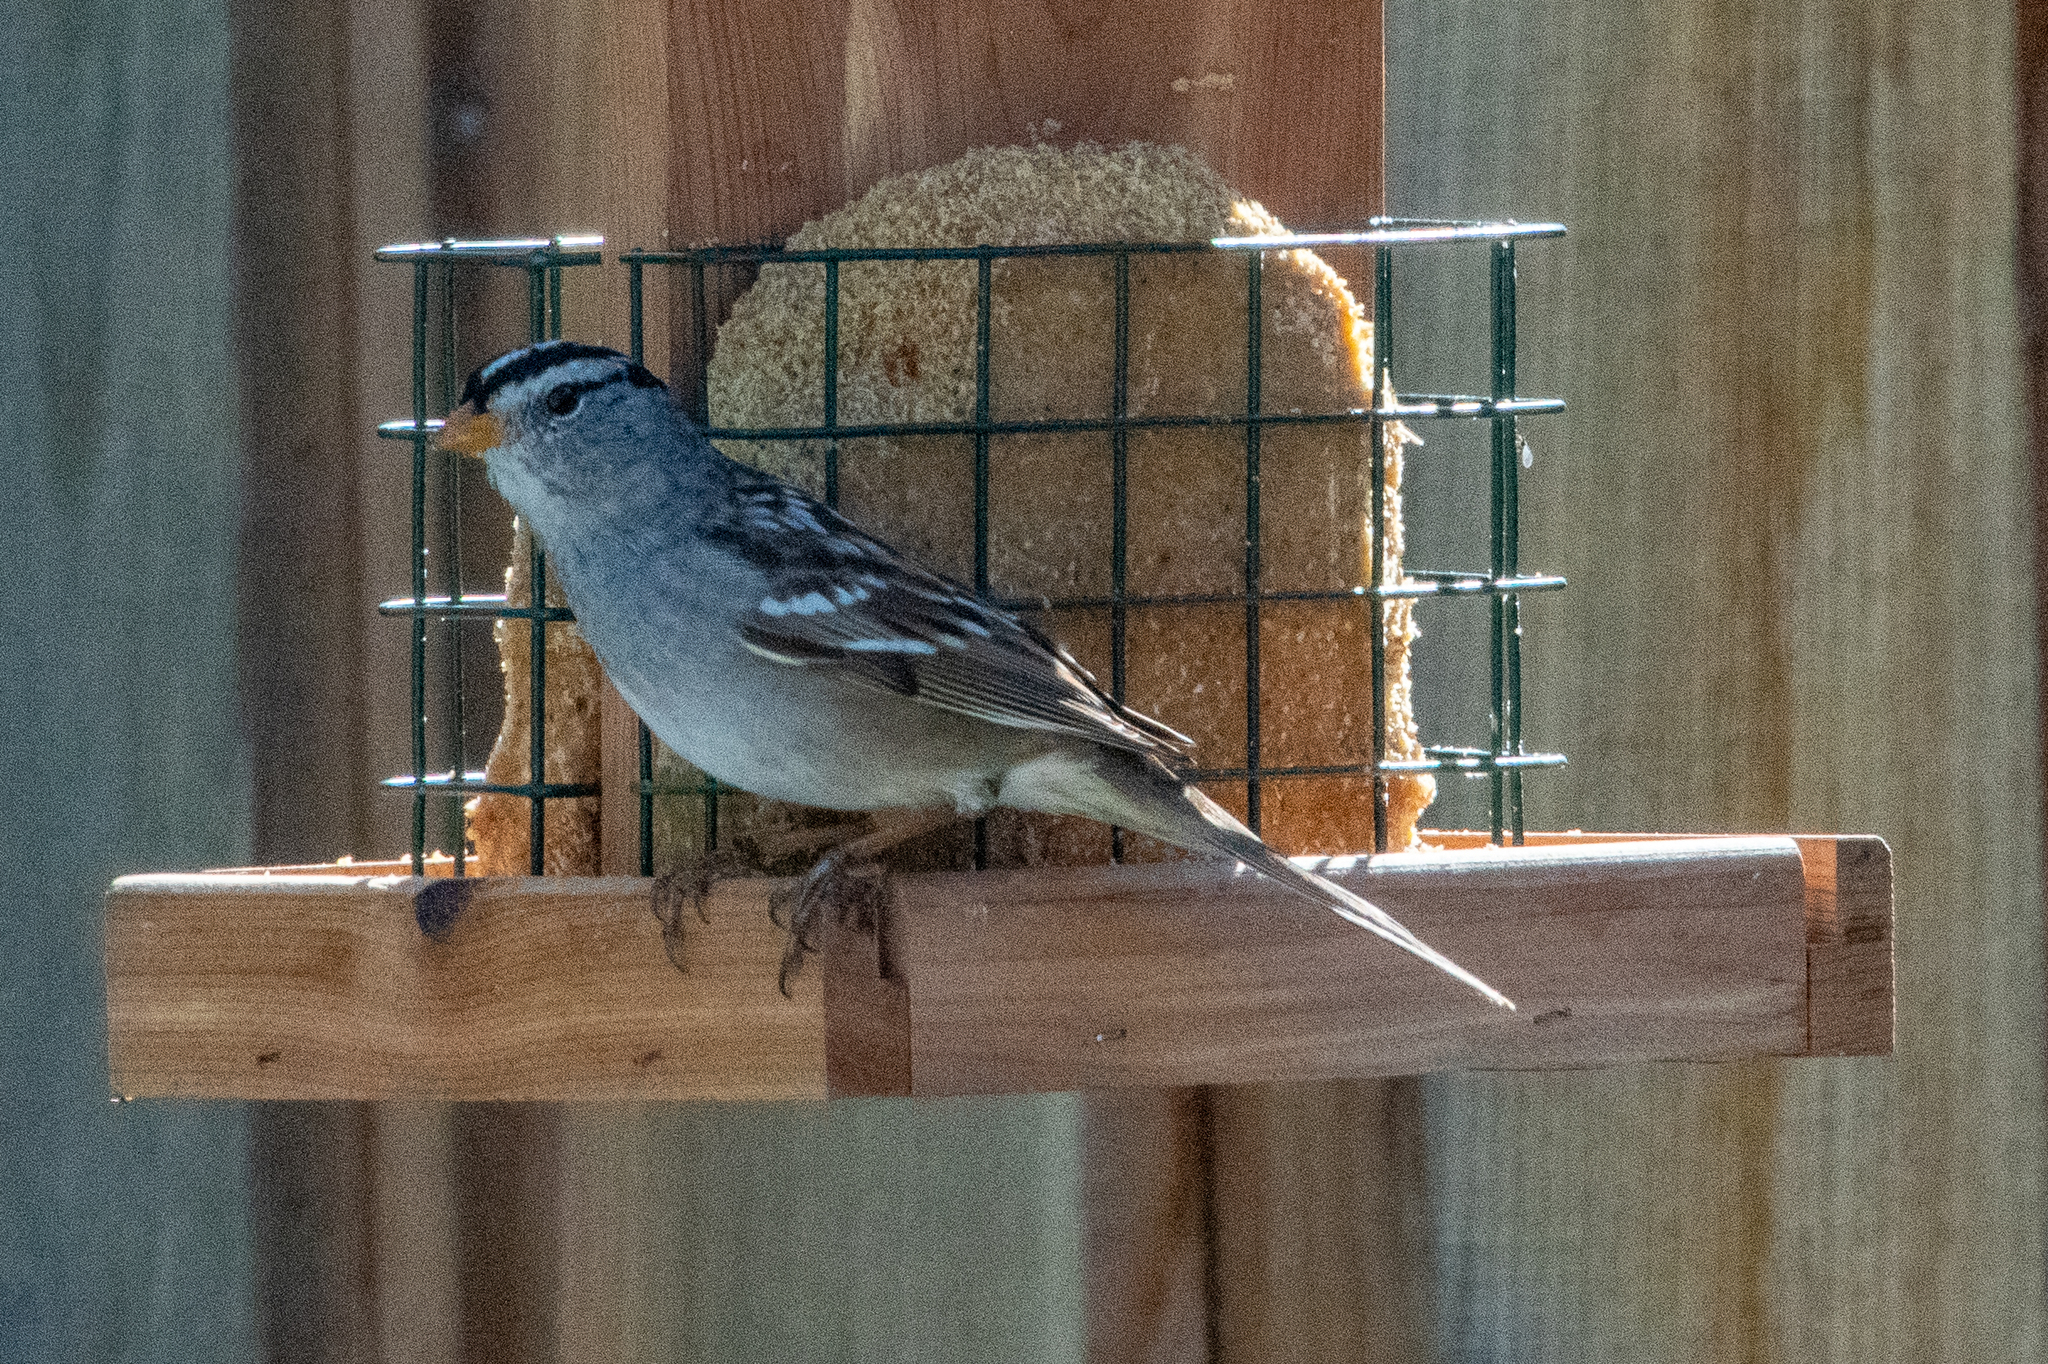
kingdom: Animalia
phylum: Chordata
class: Aves
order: Passeriformes
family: Passerellidae
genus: Zonotrichia
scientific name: Zonotrichia leucophrys
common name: White-crowned sparrow
